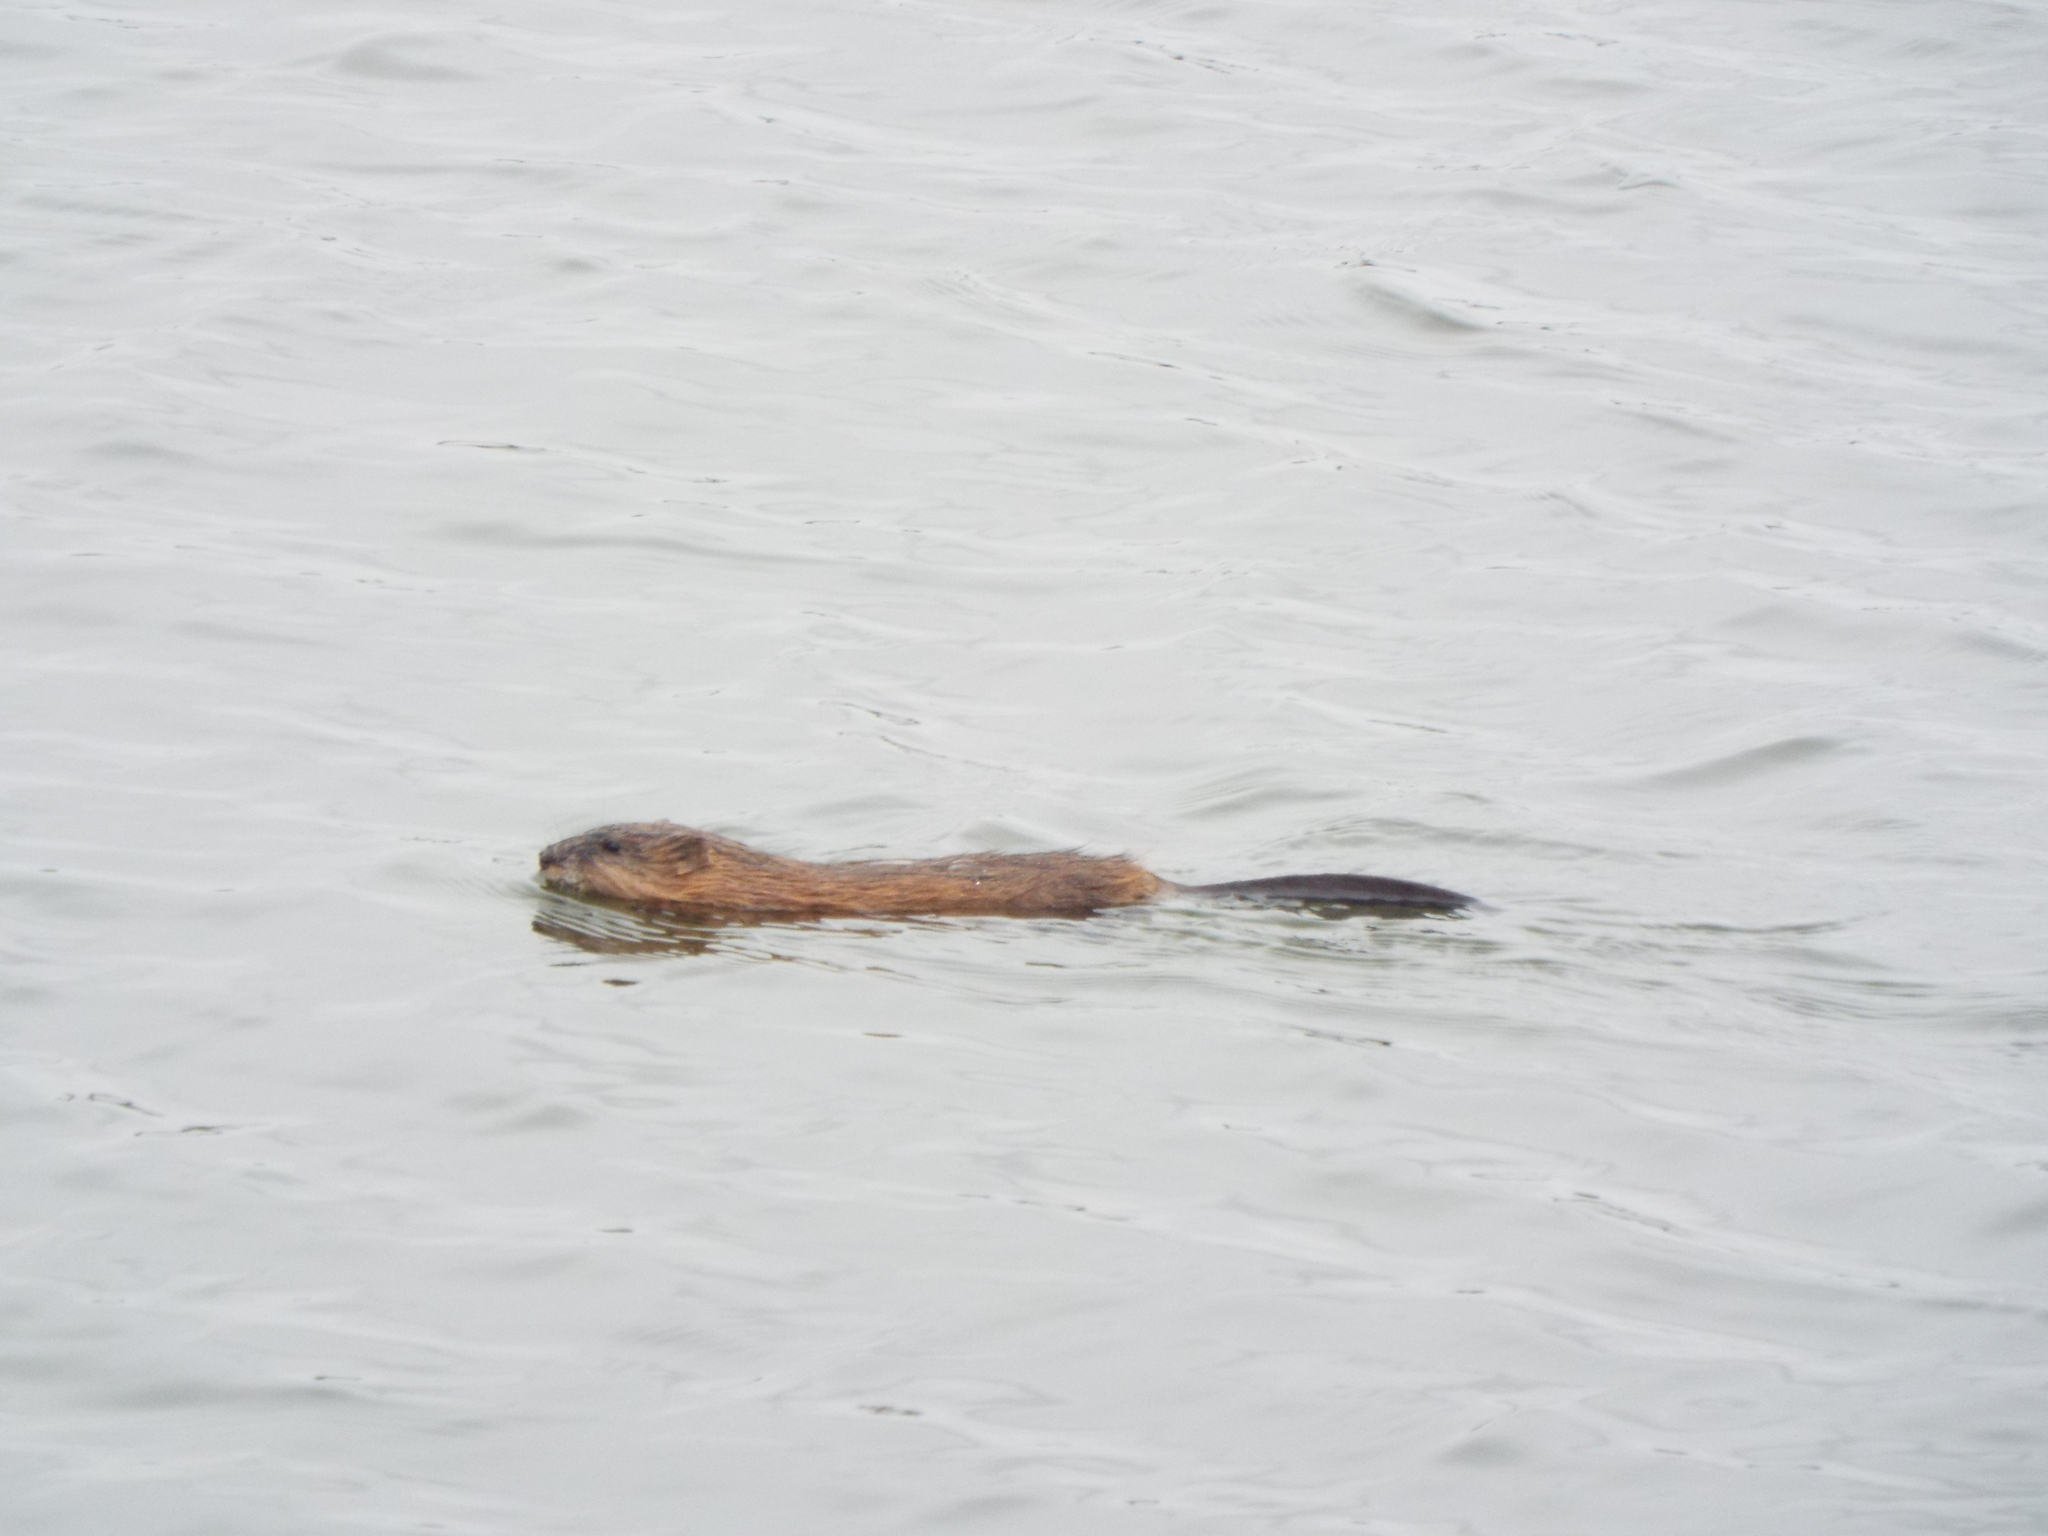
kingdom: Animalia
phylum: Chordata
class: Mammalia
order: Rodentia
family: Cricetidae
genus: Ondatra
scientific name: Ondatra zibethicus
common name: Muskrat
